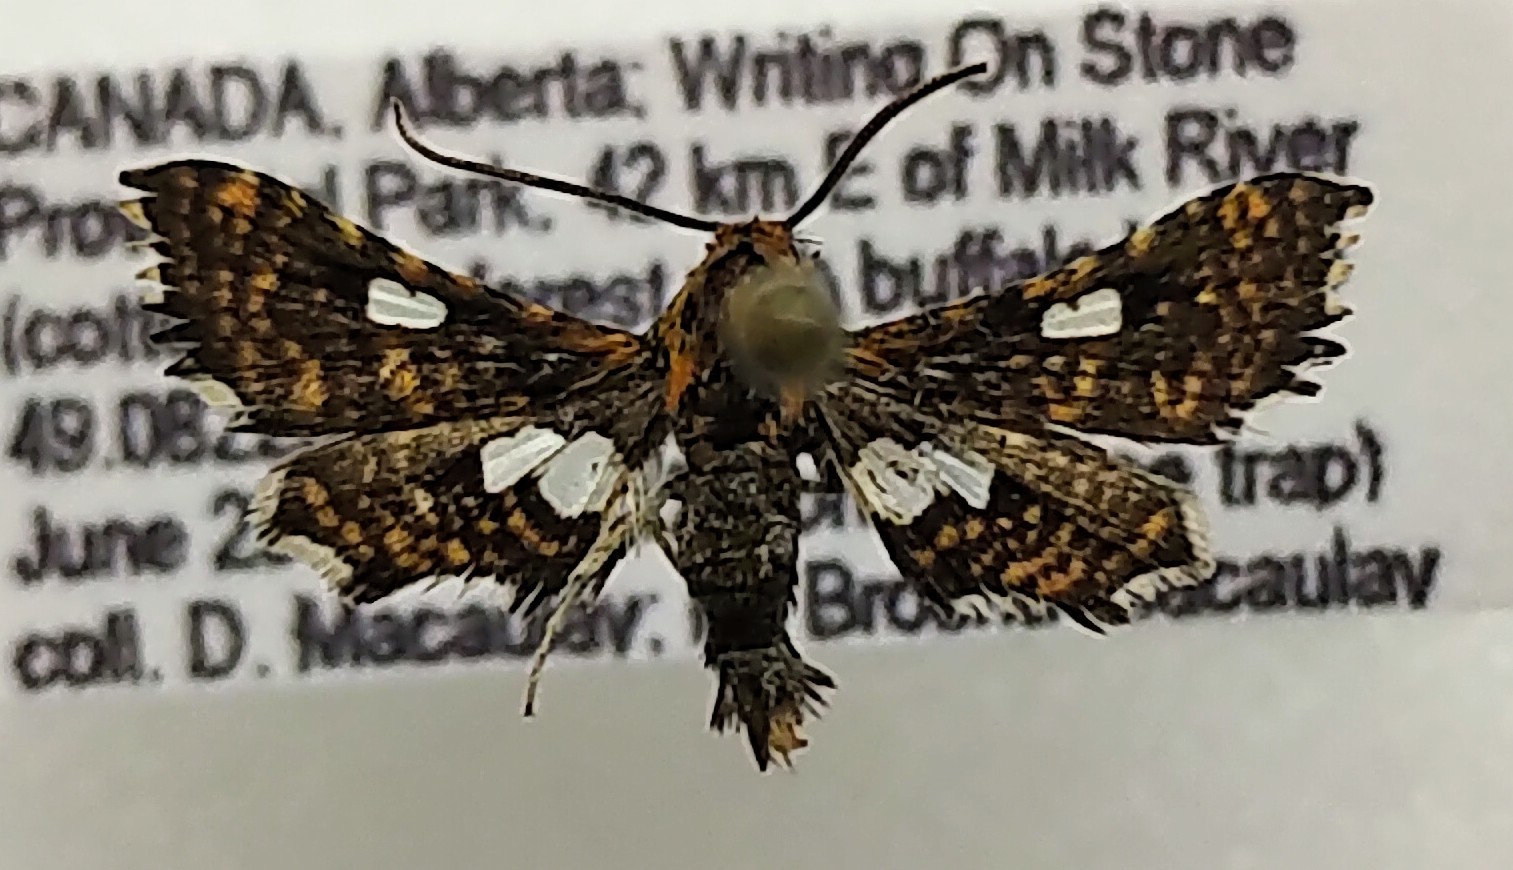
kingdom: Animalia
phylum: Arthropoda
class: Insecta
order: Lepidoptera
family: Thyrididae
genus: Thyris
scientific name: Thyris maculata
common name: Spotted thyris moth
